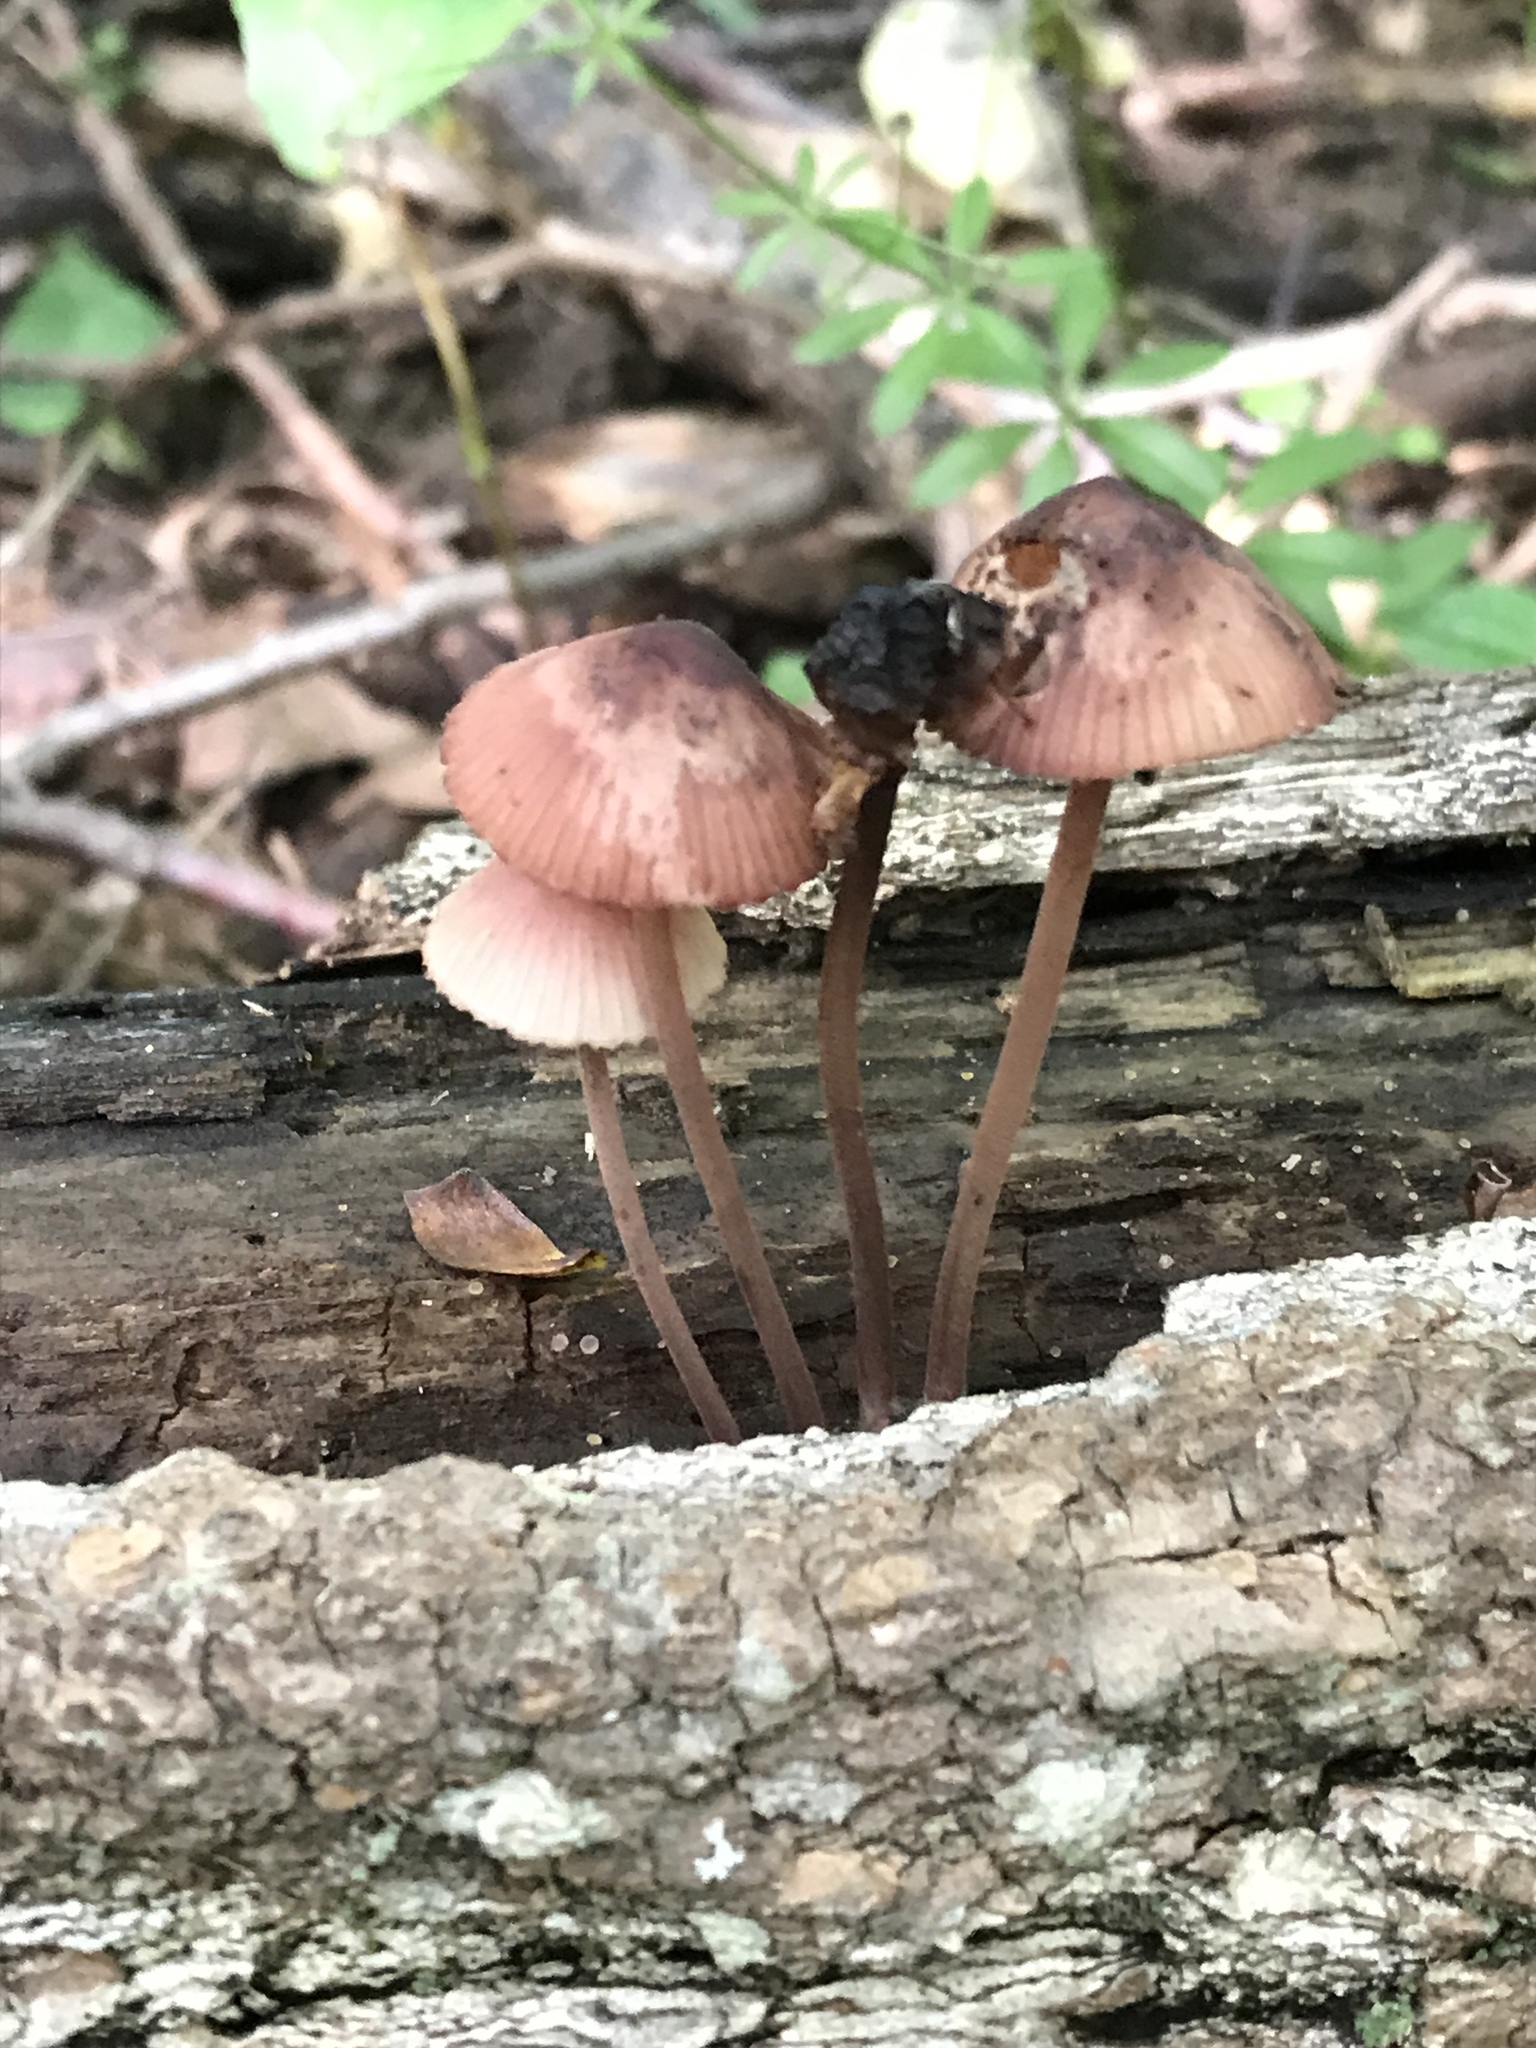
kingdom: Fungi
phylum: Basidiomycota
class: Agaricomycetes
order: Agaricales
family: Mycenaceae
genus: Mycena
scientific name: Mycena haematopus
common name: Burgundydrop bonnet
